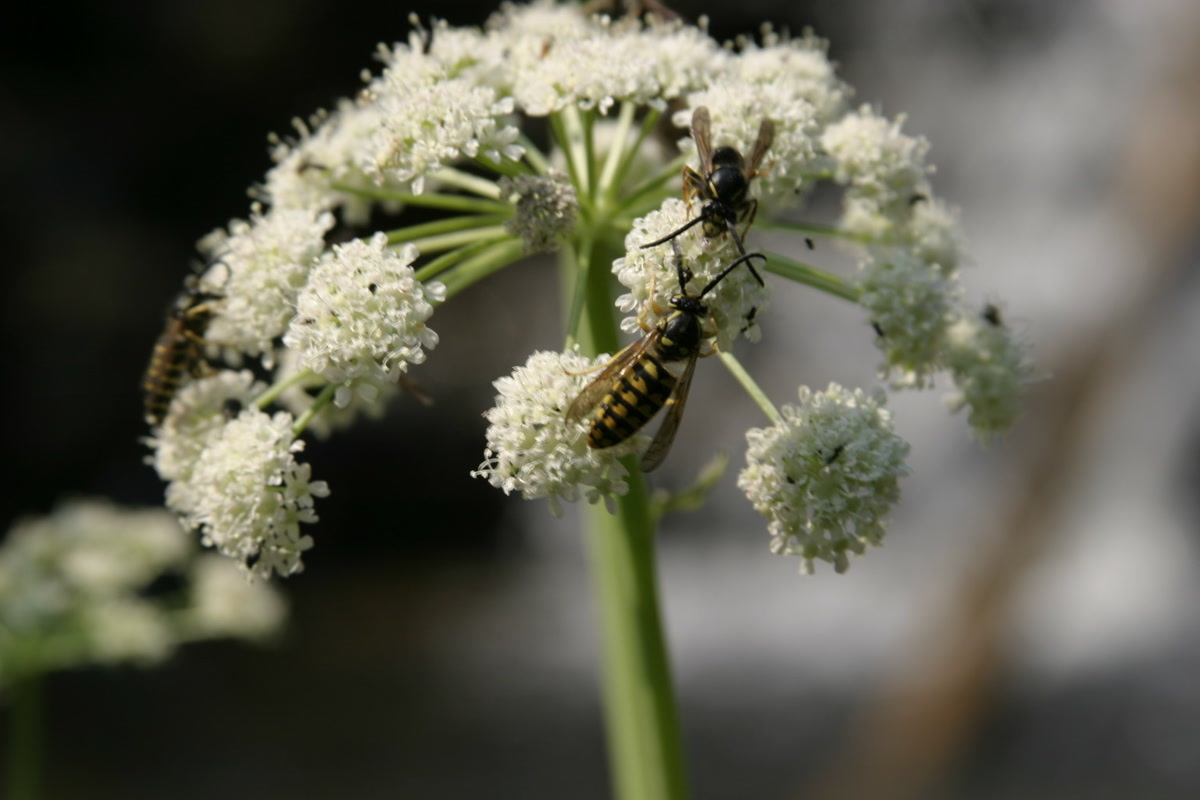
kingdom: Animalia
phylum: Arthropoda
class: Insecta
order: Hymenoptera
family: Vespidae
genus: Dolichovespula
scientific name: Dolichovespula arenaria
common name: Aerial yellowjacket
